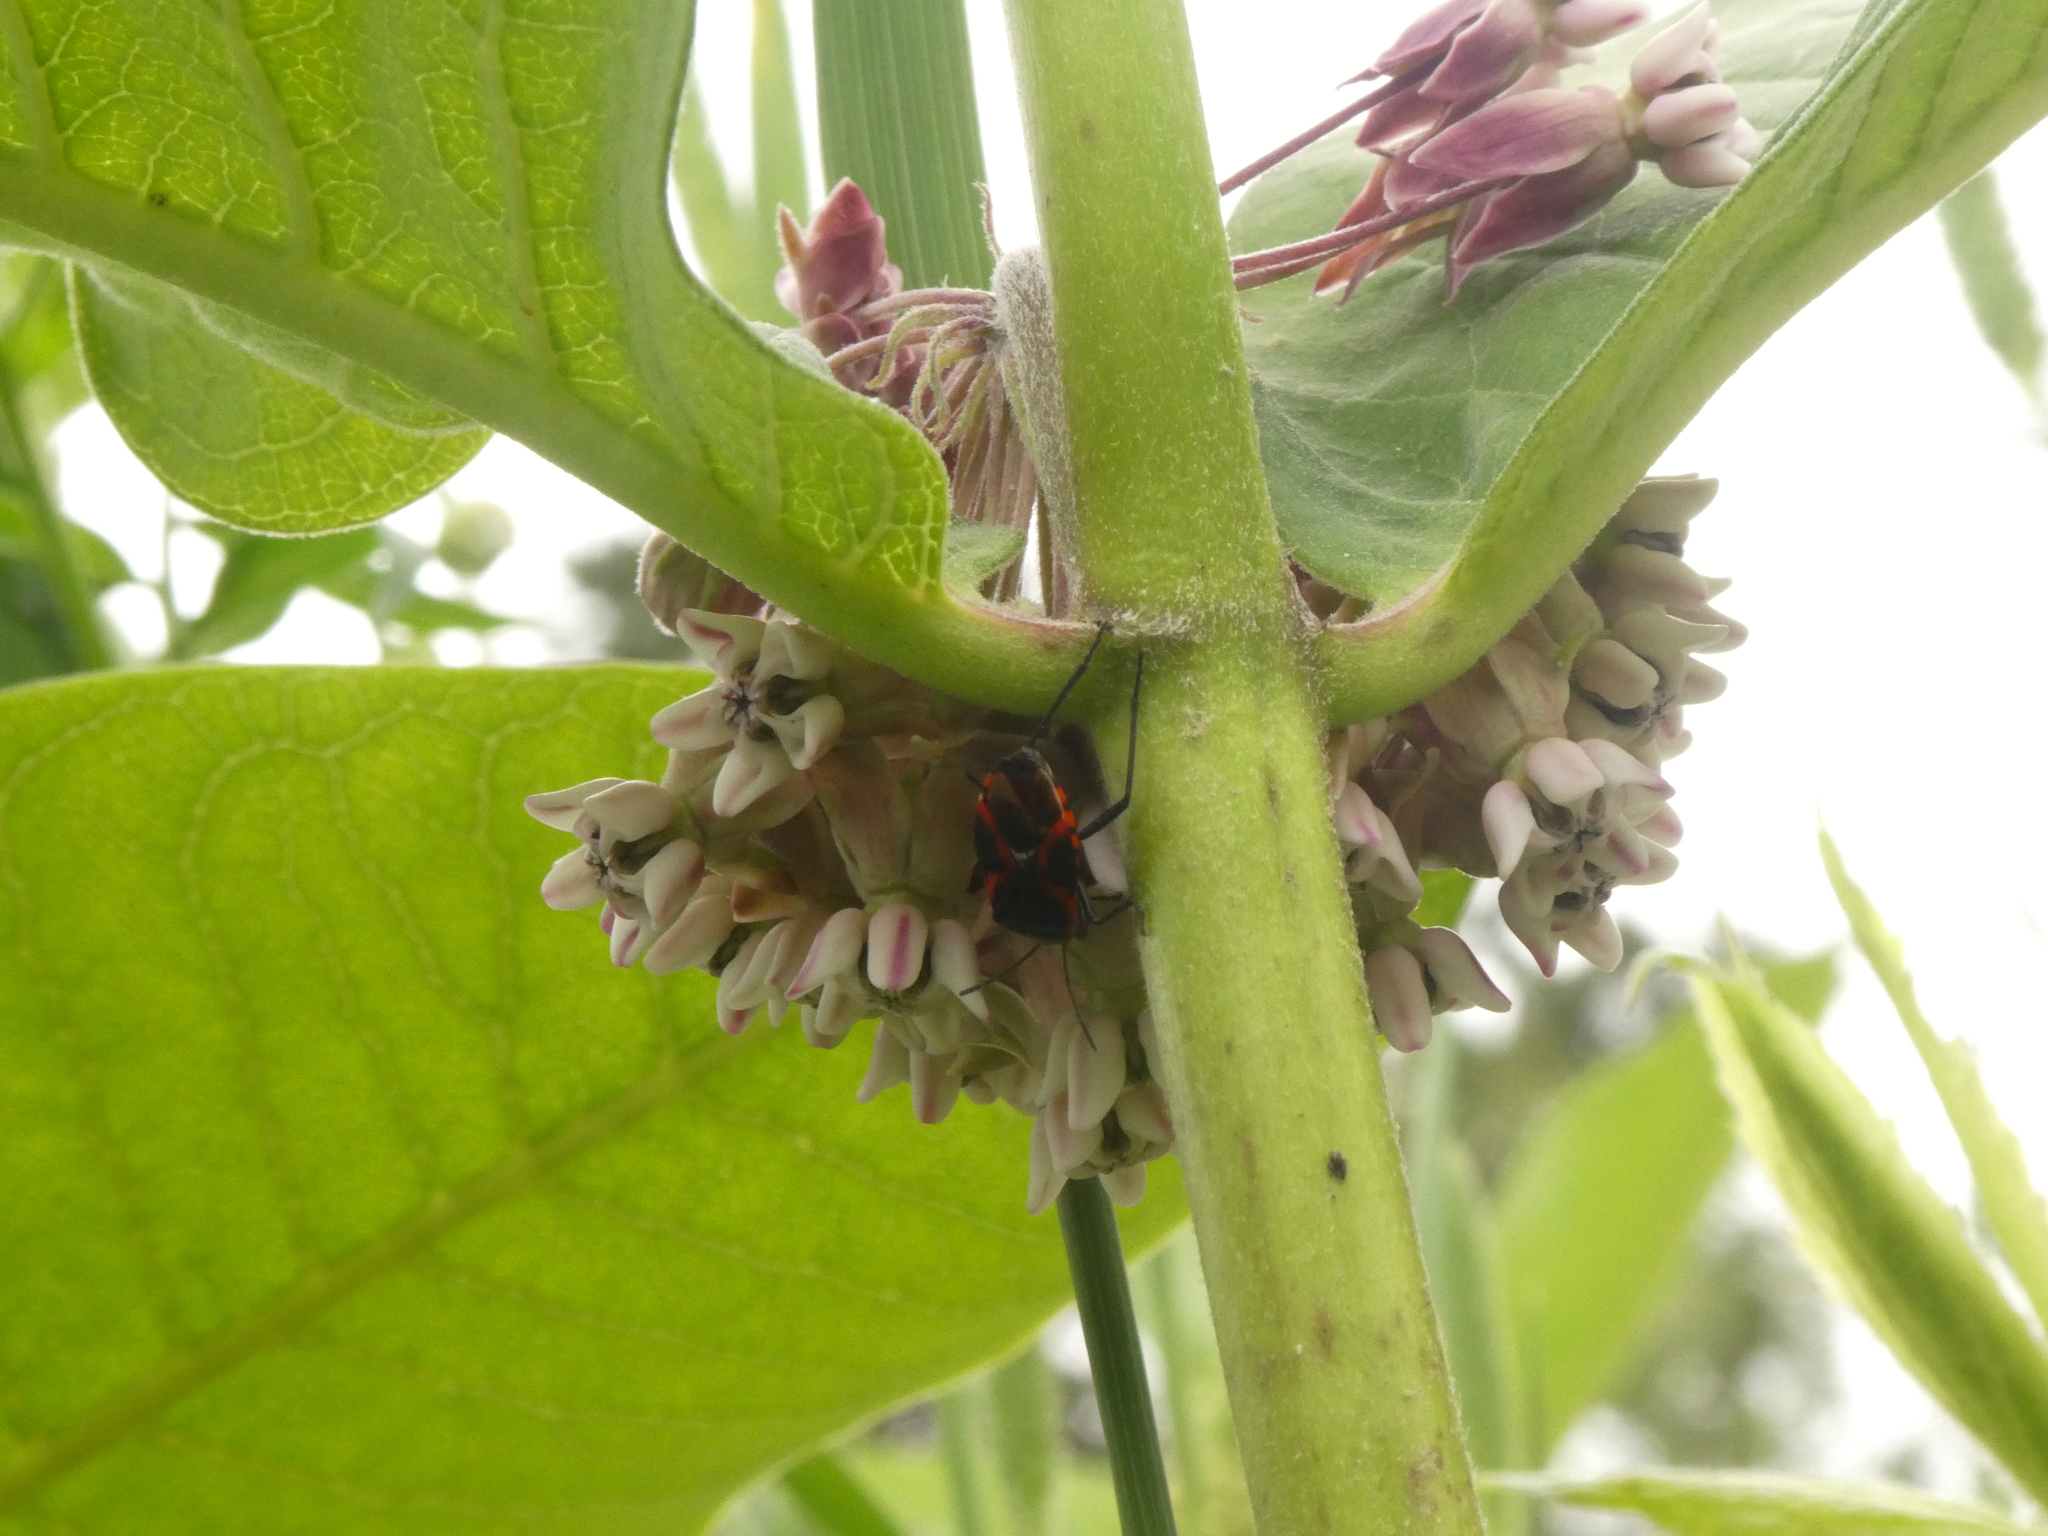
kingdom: Animalia
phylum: Arthropoda
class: Insecta
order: Hemiptera
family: Lygaeidae
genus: Lygaeus
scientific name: Lygaeus kalmii
